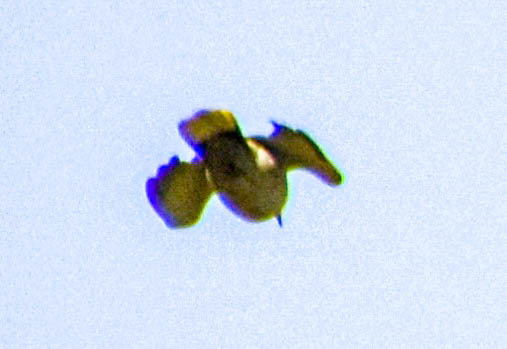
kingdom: Animalia
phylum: Chordata
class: Aves
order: Columbiformes
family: Columbidae
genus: Streptopelia
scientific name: Streptopelia decaocto
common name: Eurasian collared dove
